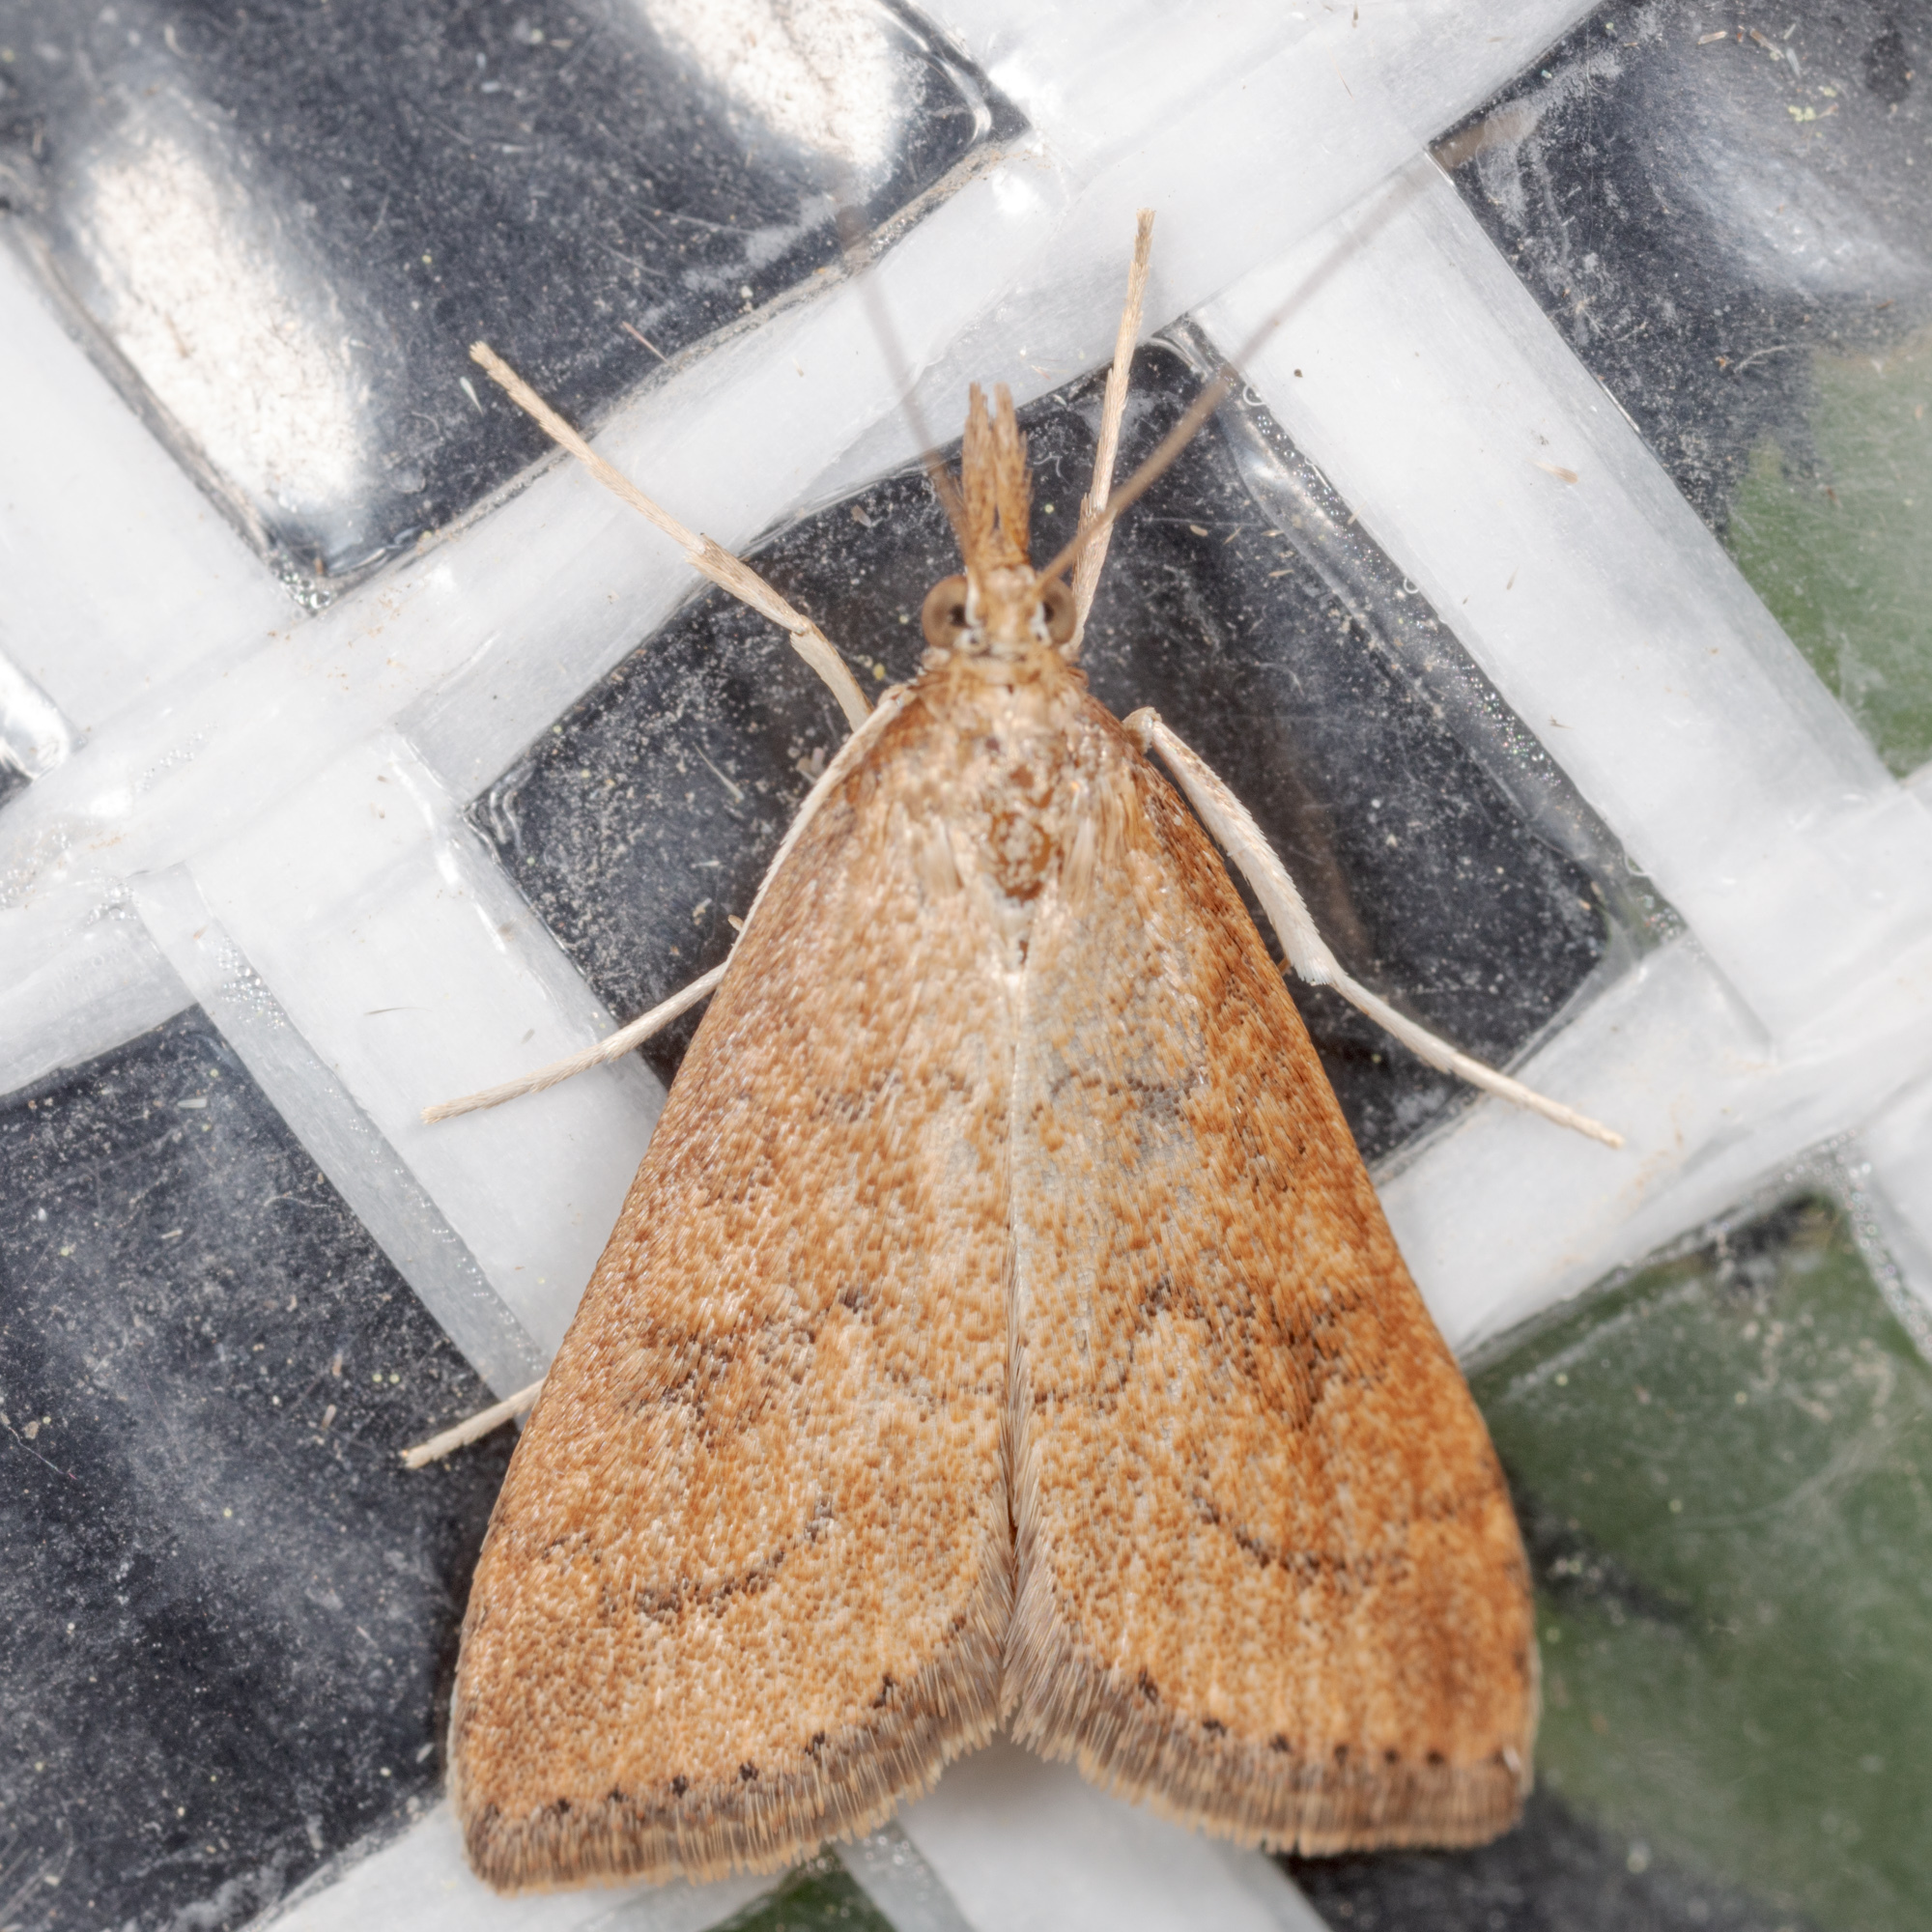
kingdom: Animalia
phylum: Arthropoda
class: Insecta
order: Lepidoptera
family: Crambidae
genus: Udea
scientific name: Udea rubigalis
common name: Celery leaftier moth
